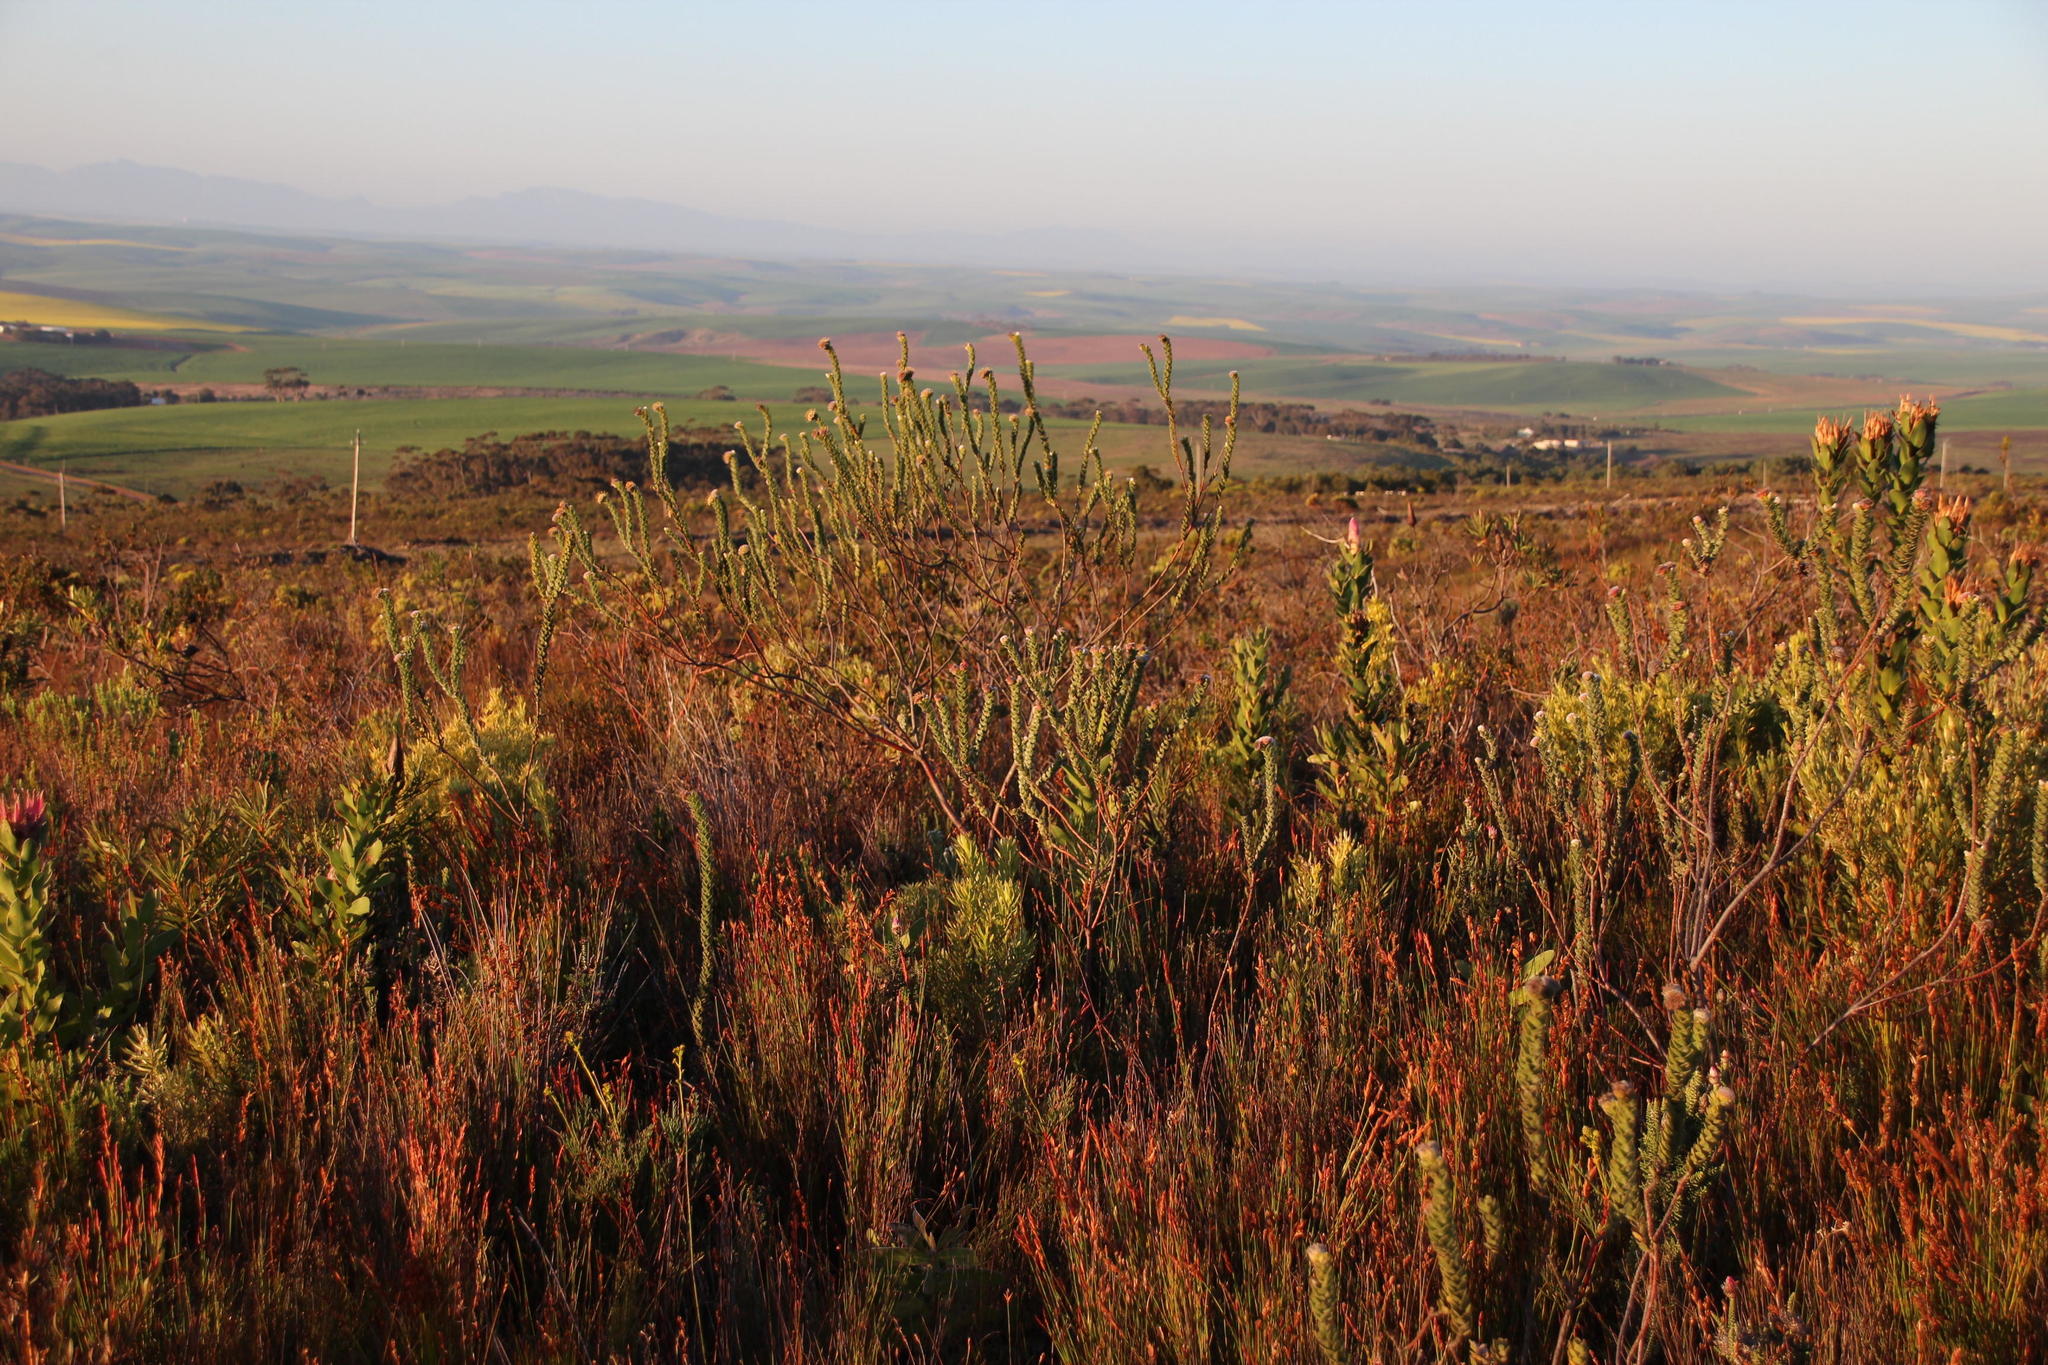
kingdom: Plantae
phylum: Tracheophyta
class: Magnoliopsida
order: Proteales
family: Proteaceae
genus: Leucospermum
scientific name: Leucospermum truncatulum
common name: Oval-leaf pincushion
